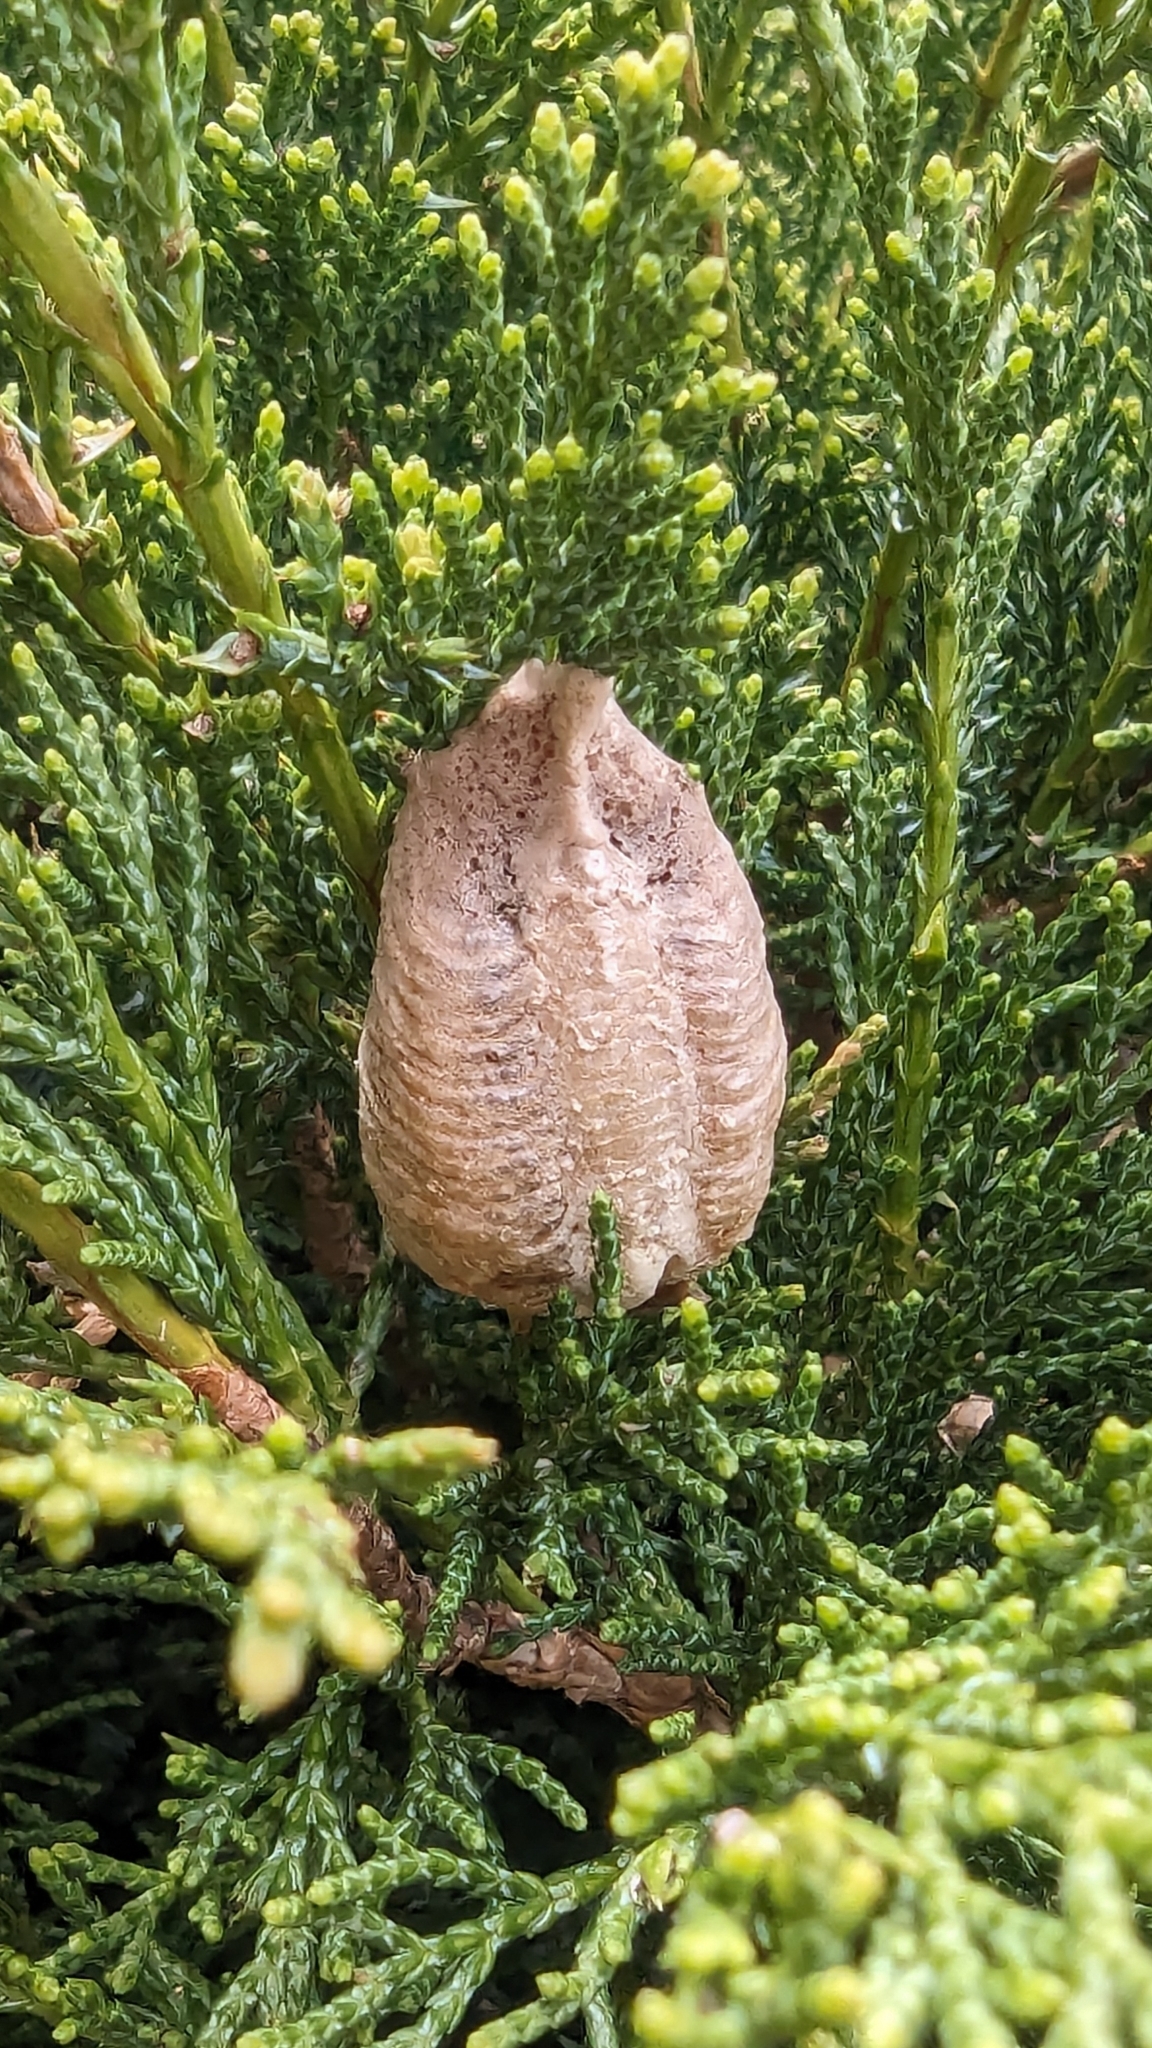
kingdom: Animalia
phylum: Arthropoda
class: Insecta
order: Mantodea
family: Mantidae
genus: Mantis
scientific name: Mantis religiosa
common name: Praying mantis
